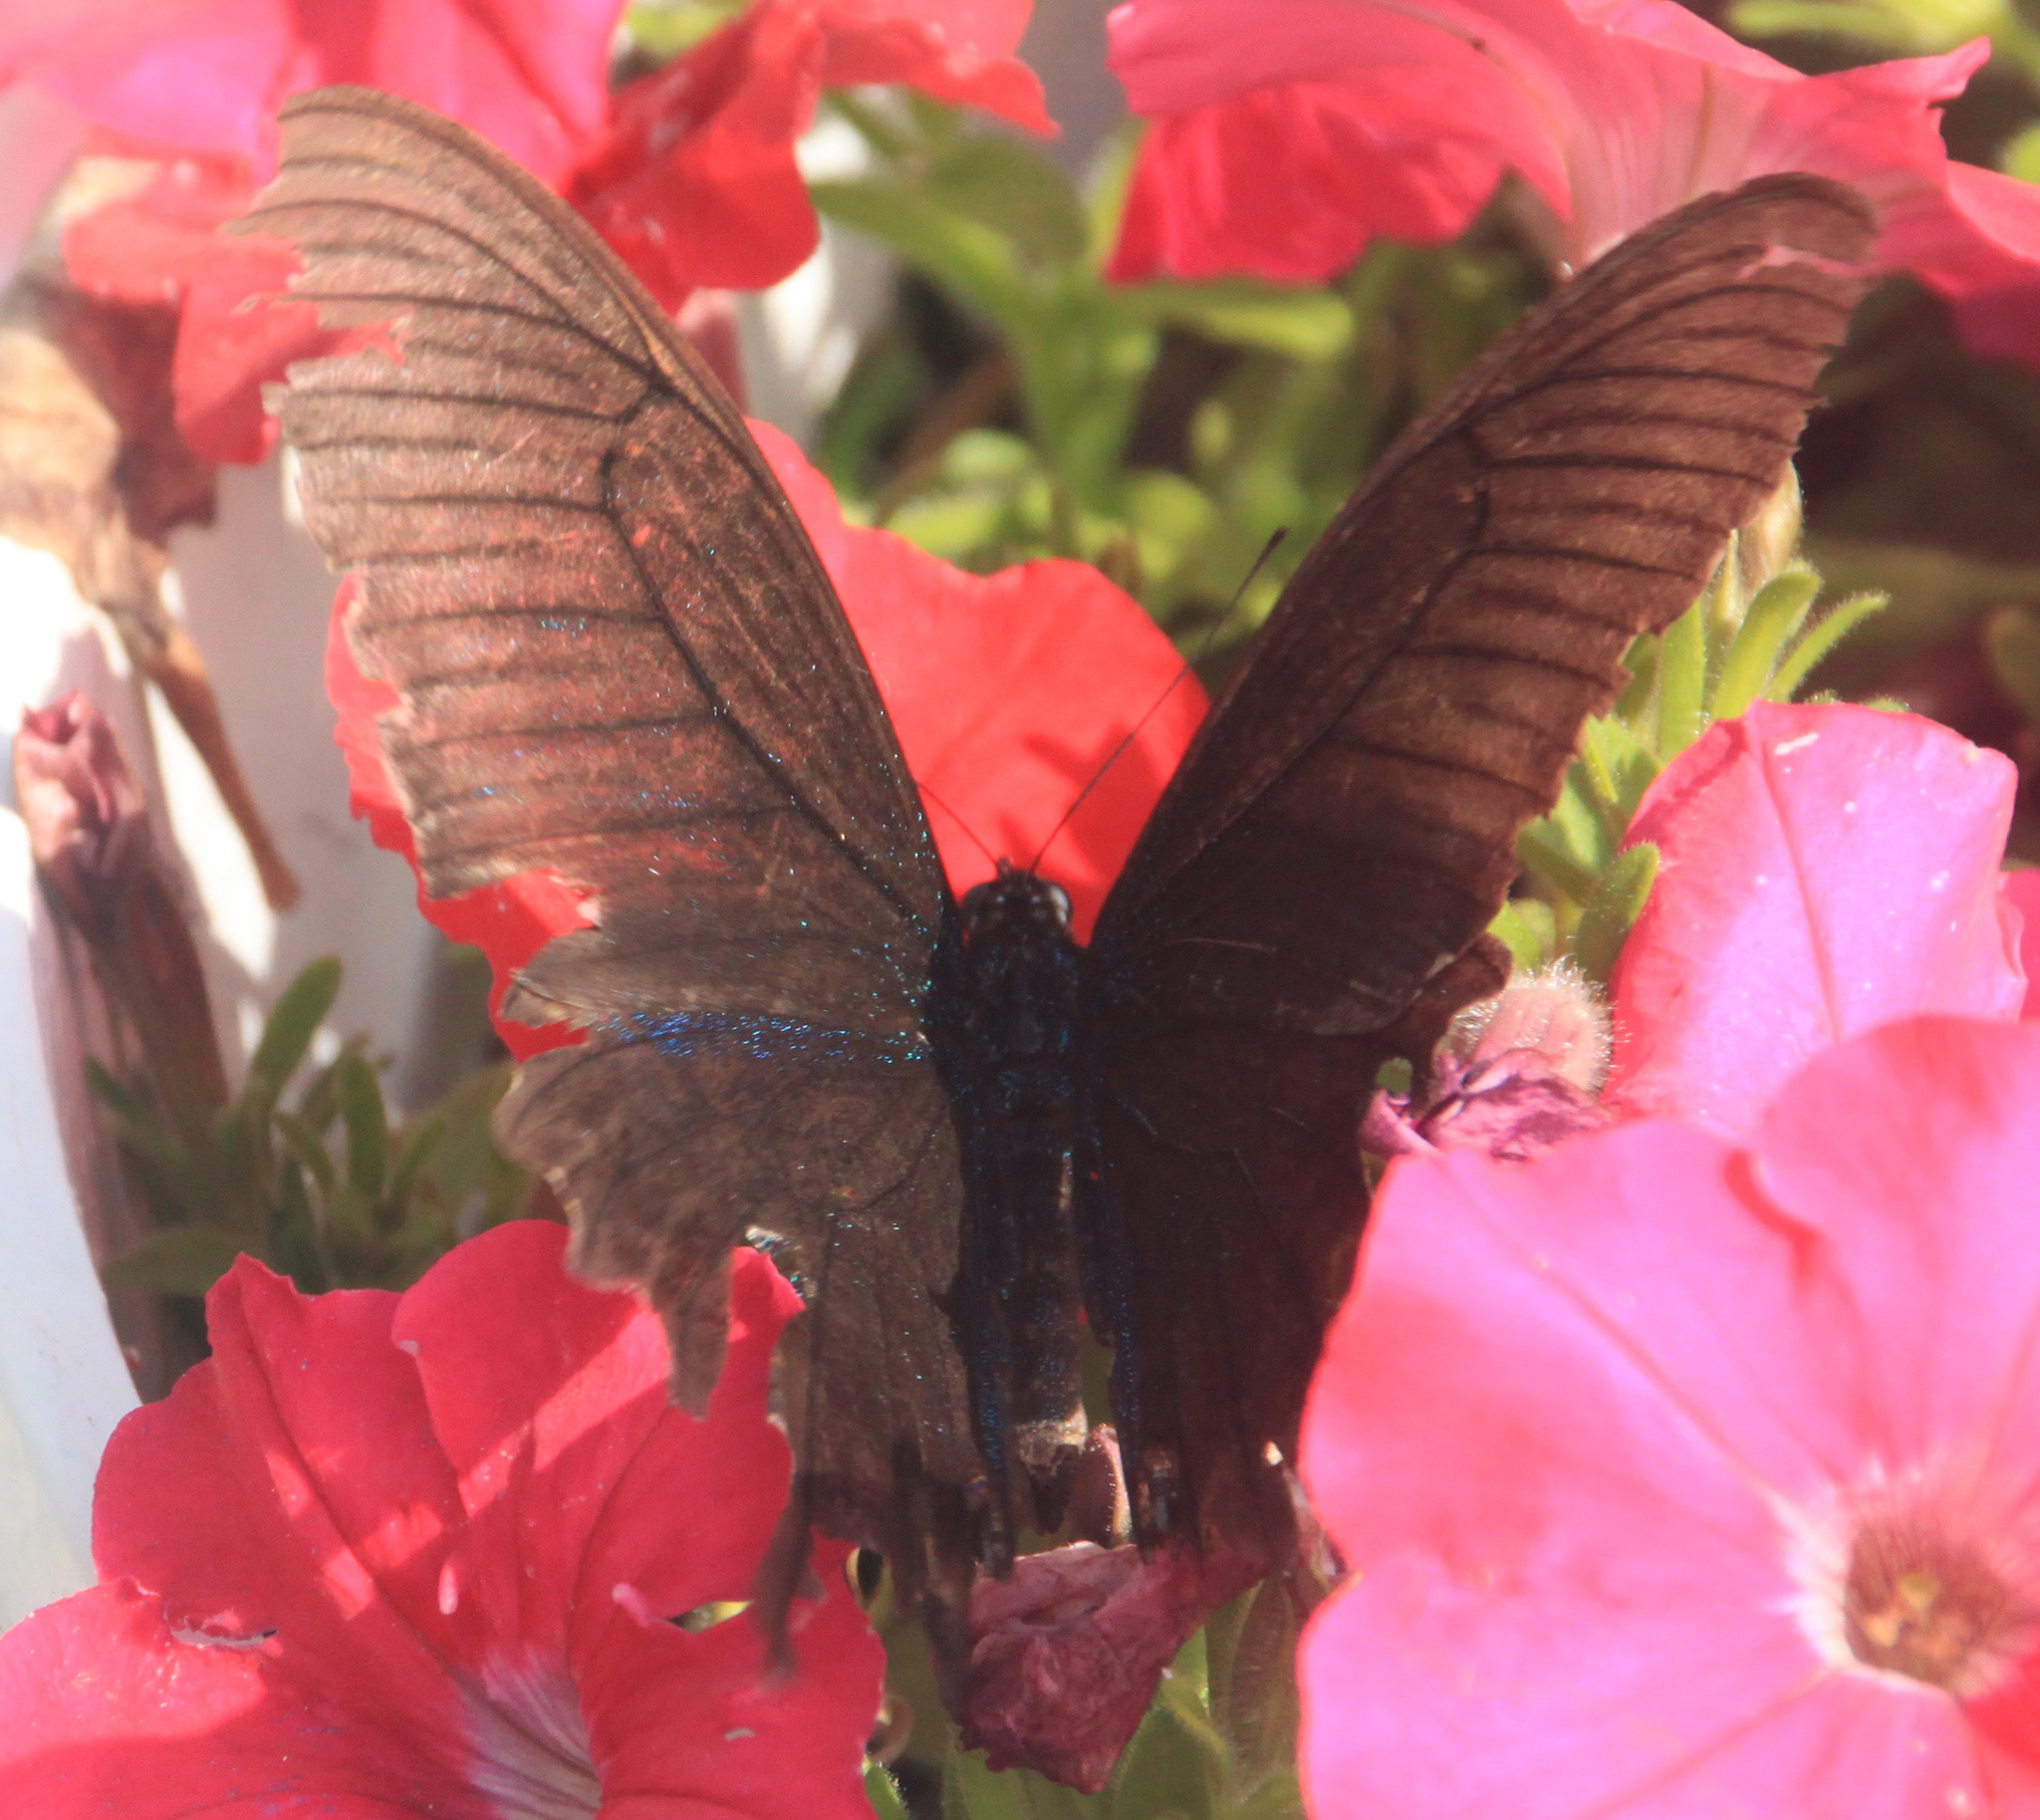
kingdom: Animalia
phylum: Arthropoda
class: Insecta
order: Lepidoptera
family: Papilionidae
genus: Papilio
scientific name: Papilio maackii
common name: Alpine black swallowtail
